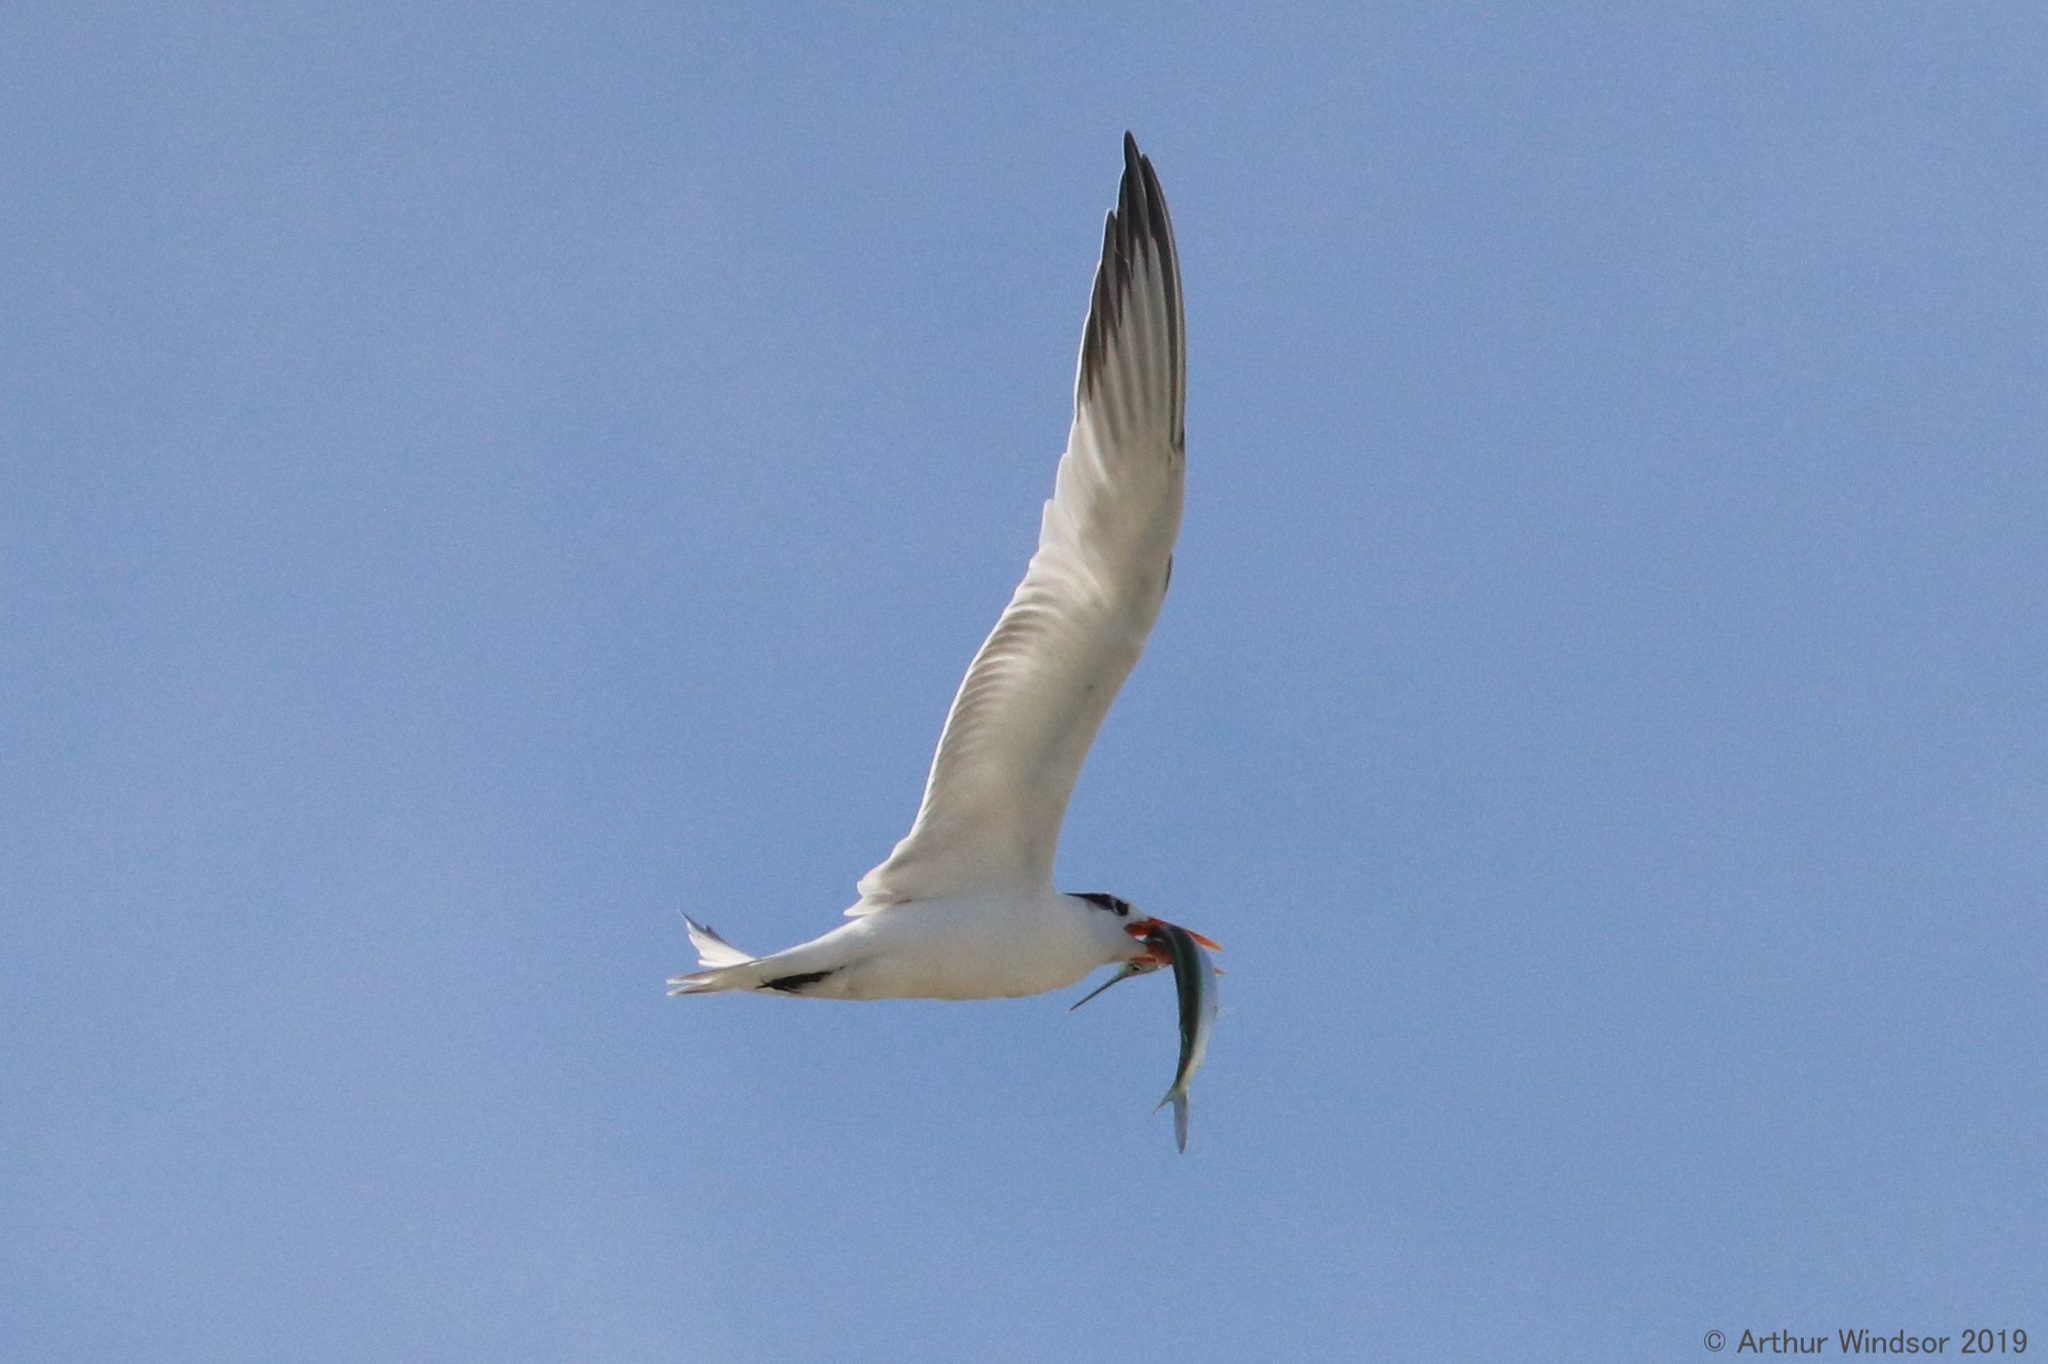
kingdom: Animalia
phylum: Chordata
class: Aves
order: Charadriiformes
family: Laridae
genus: Thalasseus
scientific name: Thalasseus maximus
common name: Royal tern
